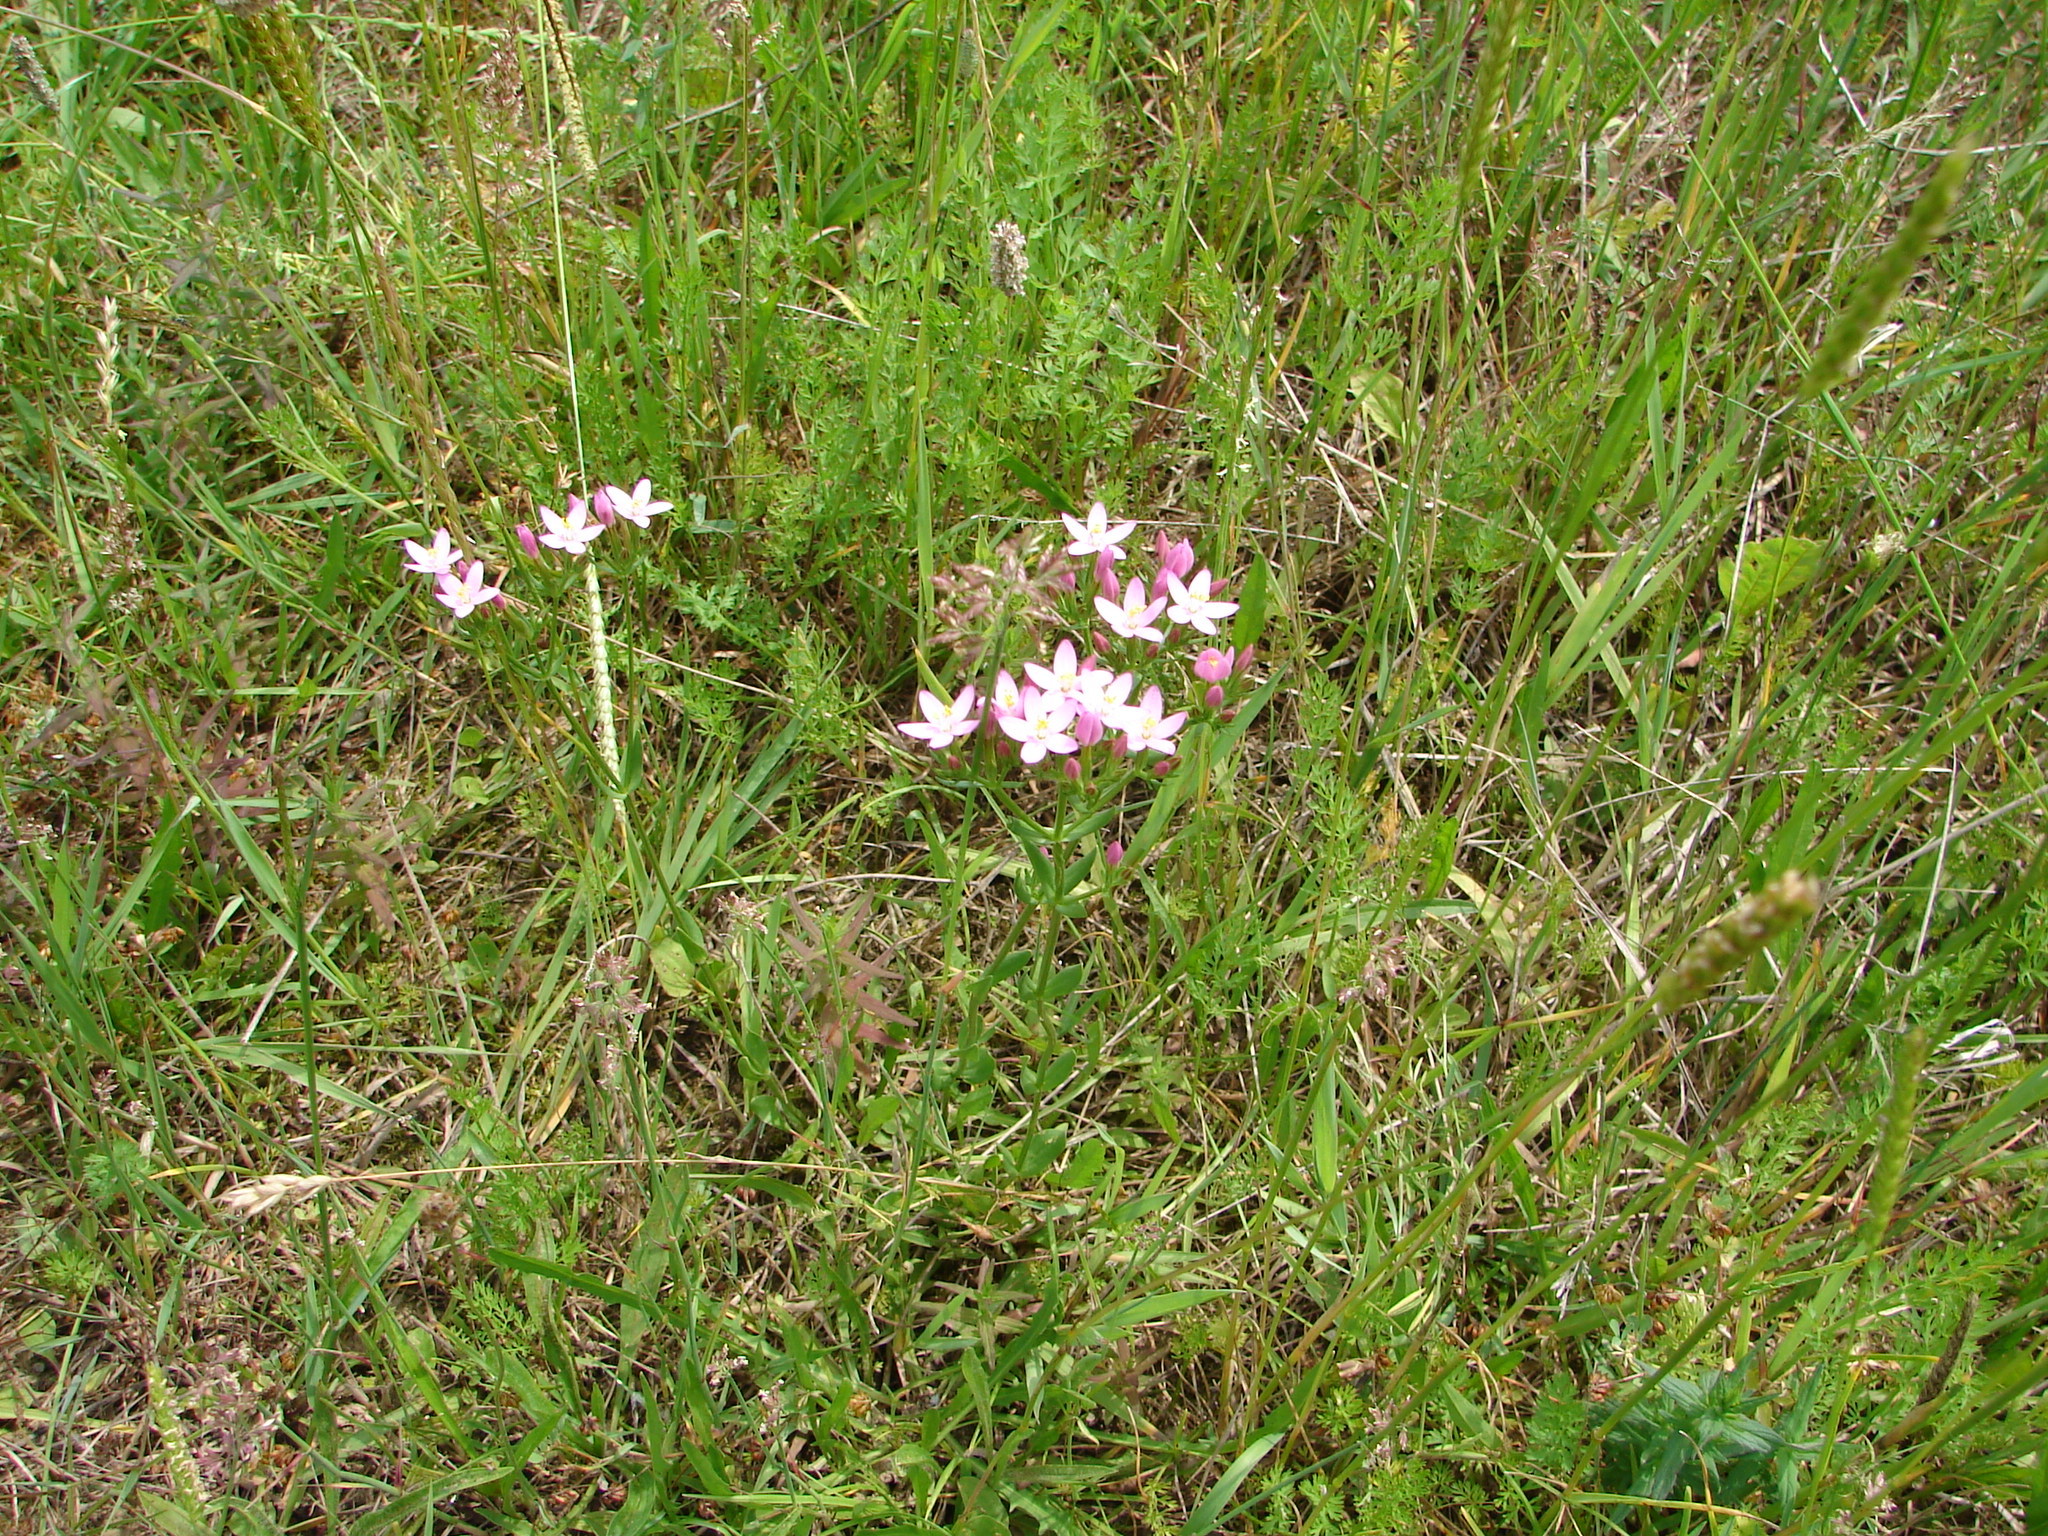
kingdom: Plantae
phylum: Tracheophyta
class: Magnoliopsida
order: Gentianales
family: Gentianaceae
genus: Centaurium
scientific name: Centaurium erythraea
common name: Common centaury
